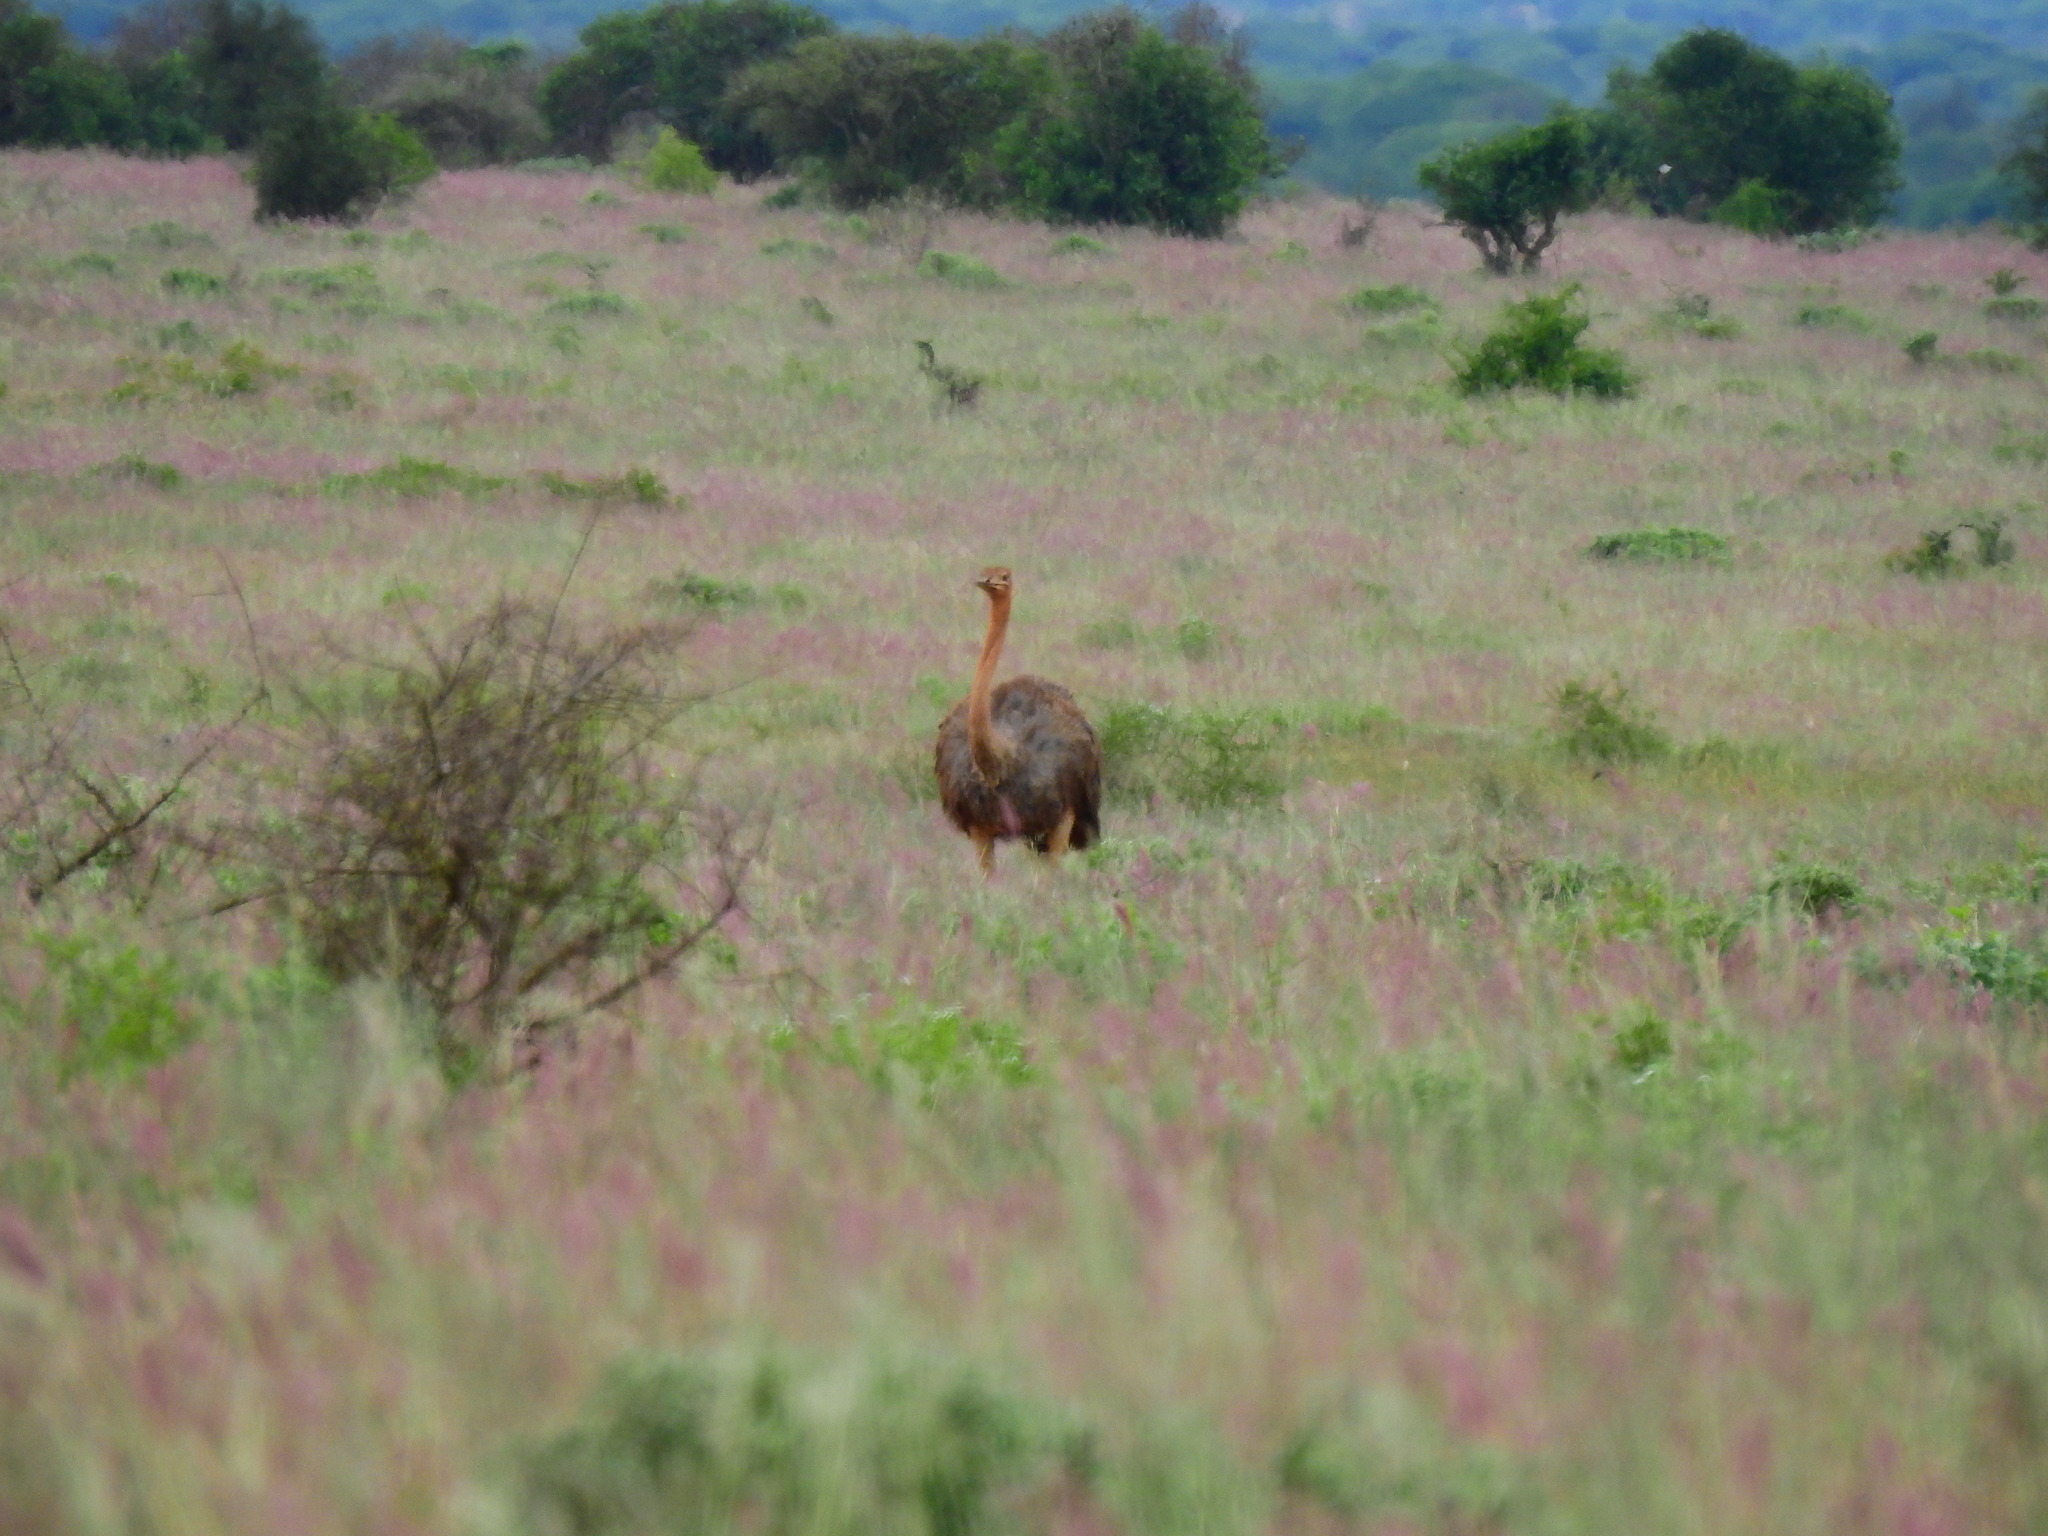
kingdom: Animalia
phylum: Chordata
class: Aves
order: Struthioniformes
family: Struthionidae
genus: Struthio
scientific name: Struthio camelus
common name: Common ostrich
